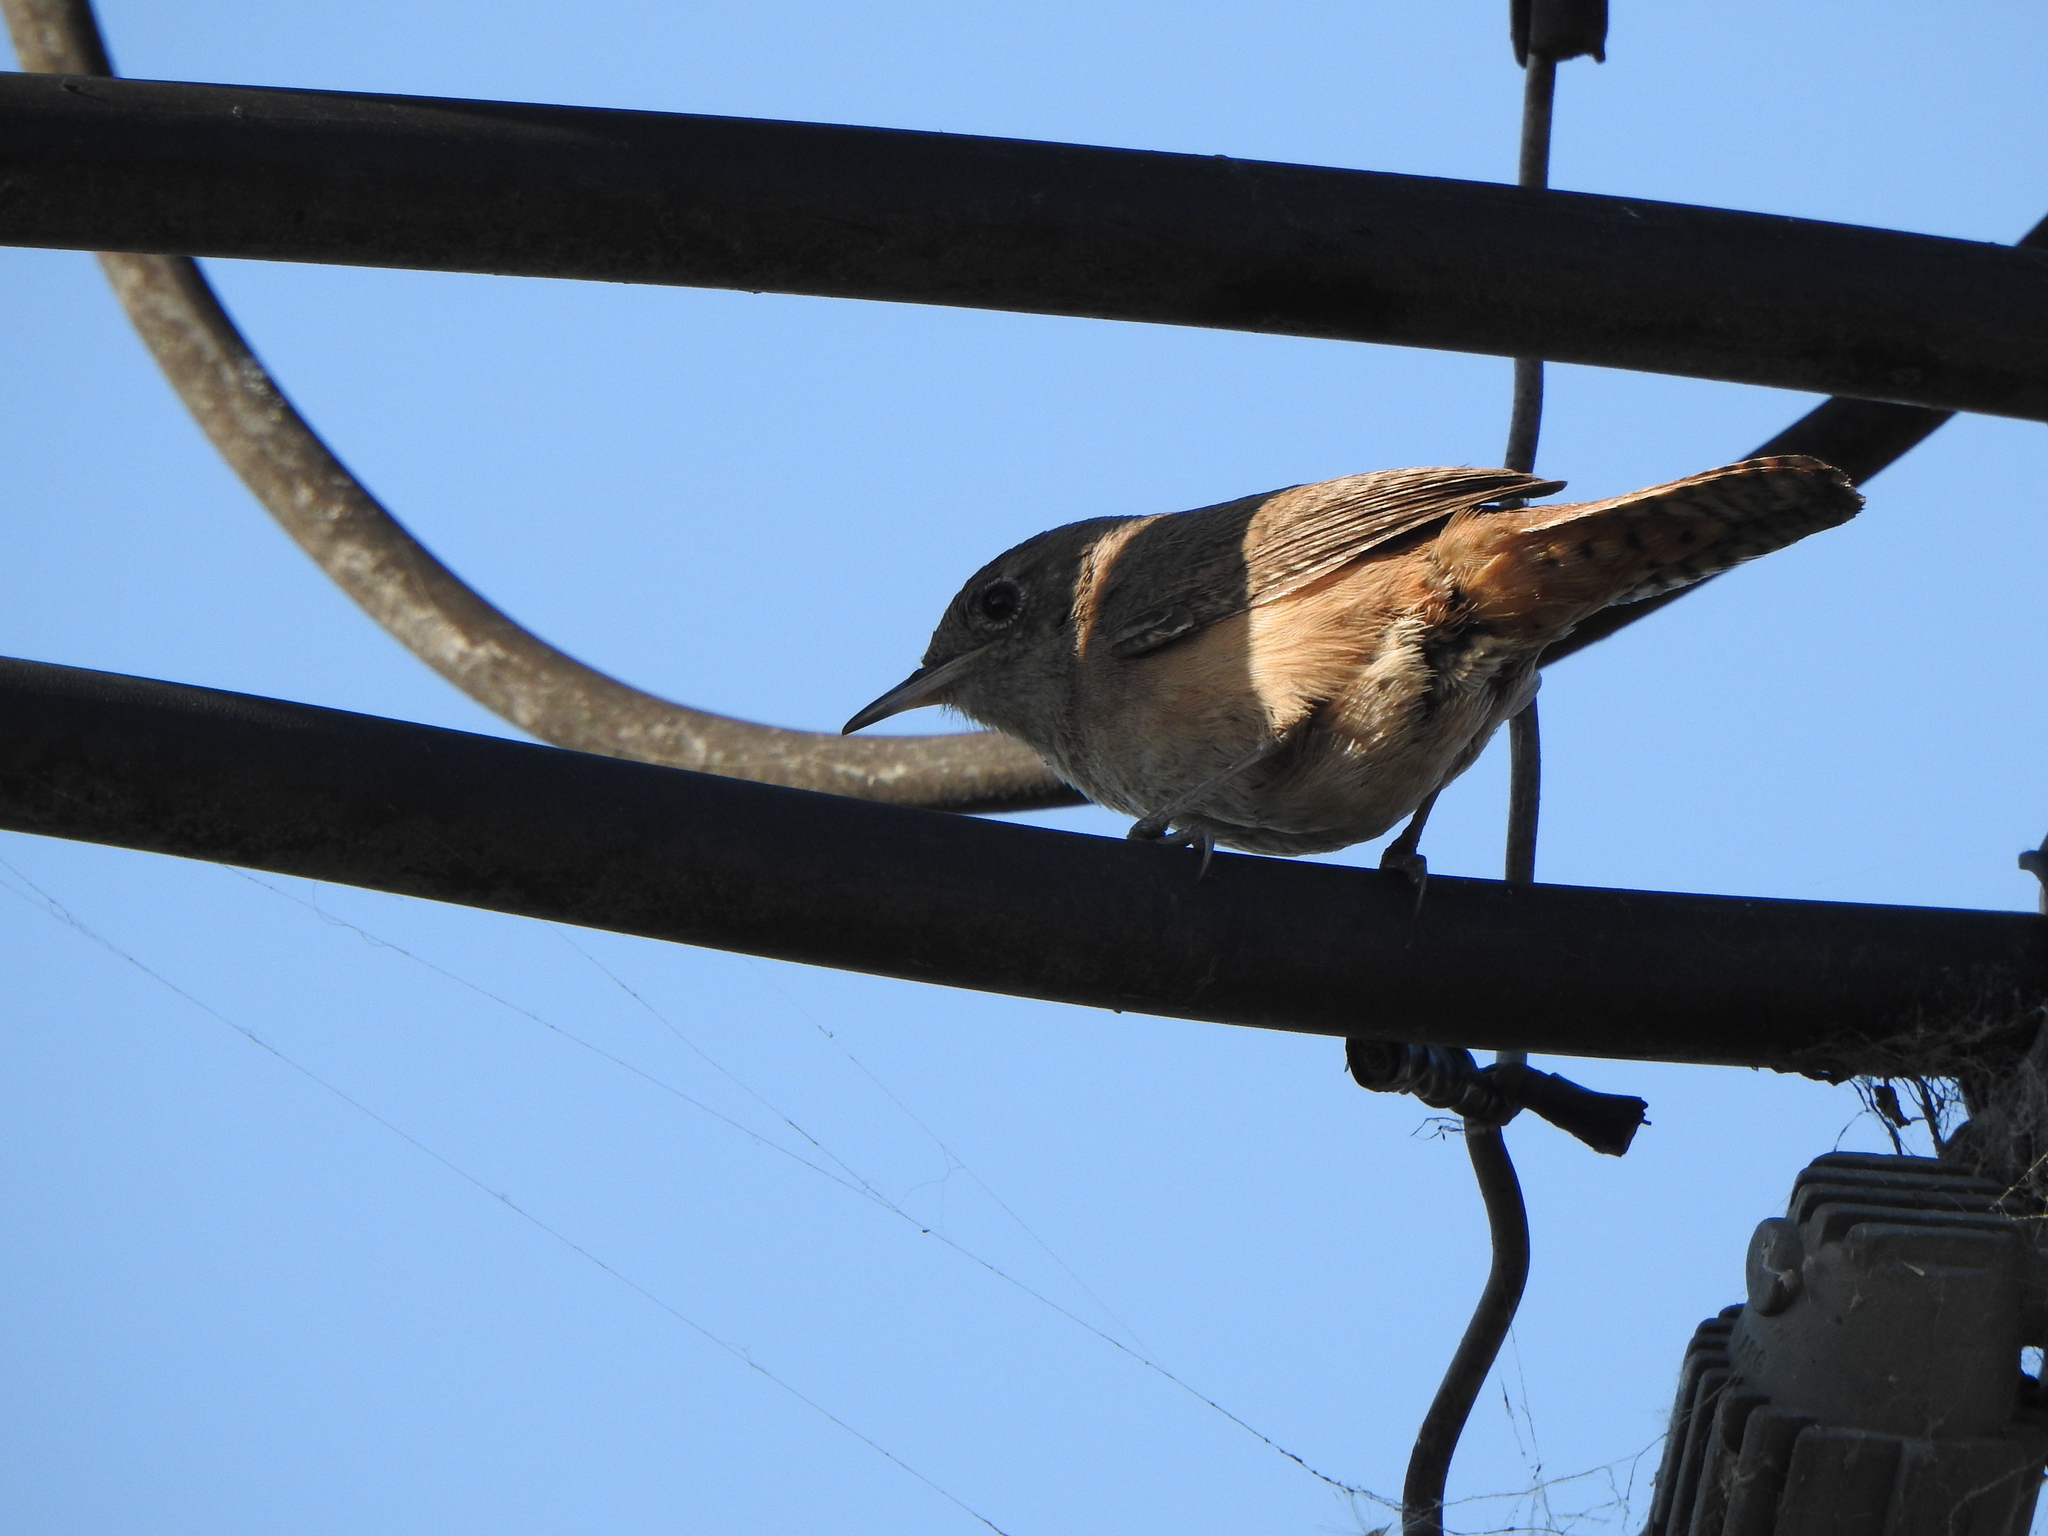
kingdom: Animalia
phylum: Chordata
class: Aves
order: Passeriformes
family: Troglodytidae
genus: Troglodytes
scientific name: Troglodytes aedon
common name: House wren
